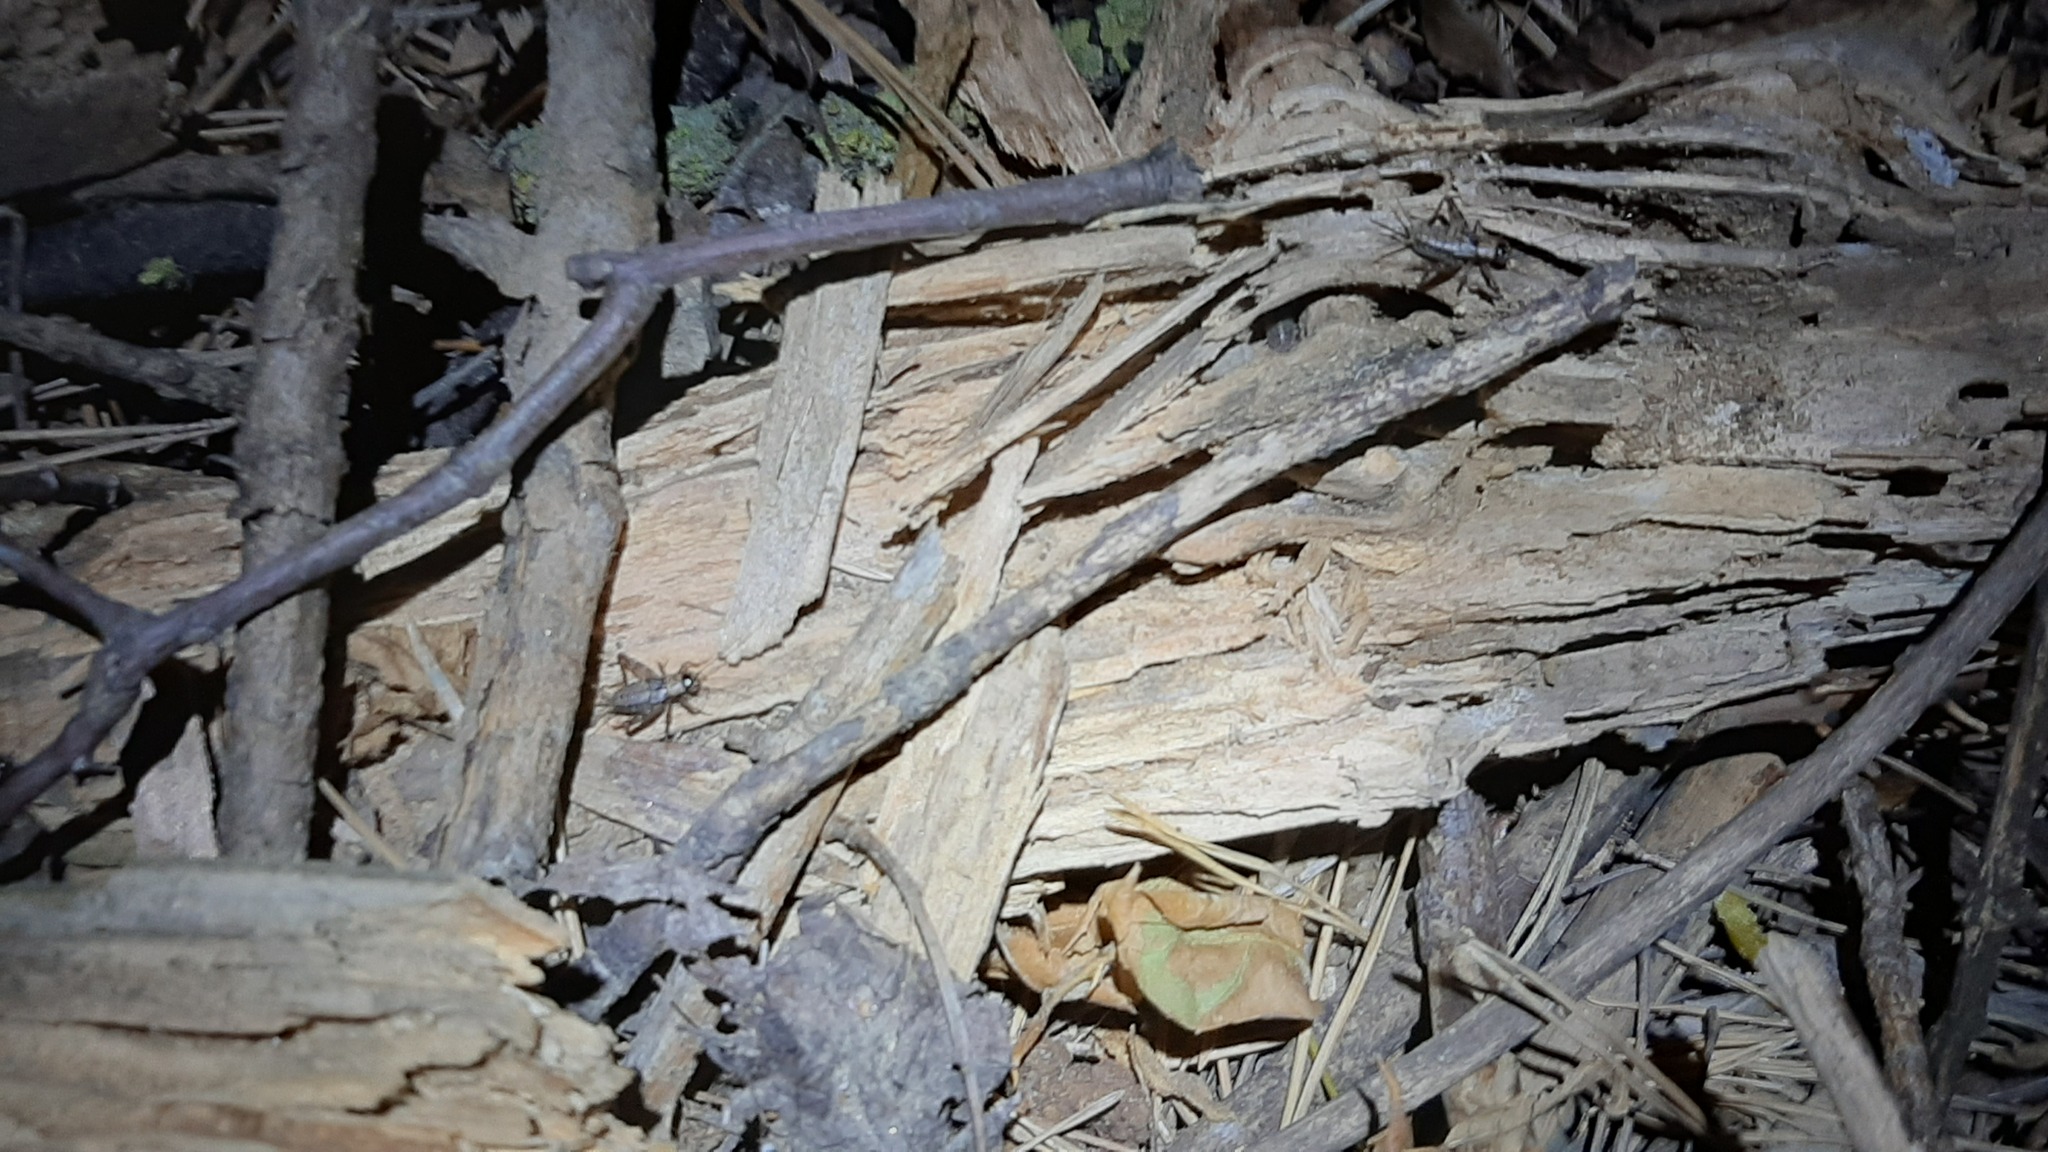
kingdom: Animalia
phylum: Arthropoda
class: Insecta
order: Orthoptera
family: Trigonidiidae
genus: Nemobius
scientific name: Nemobius sylvestris
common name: Wood-cricket
